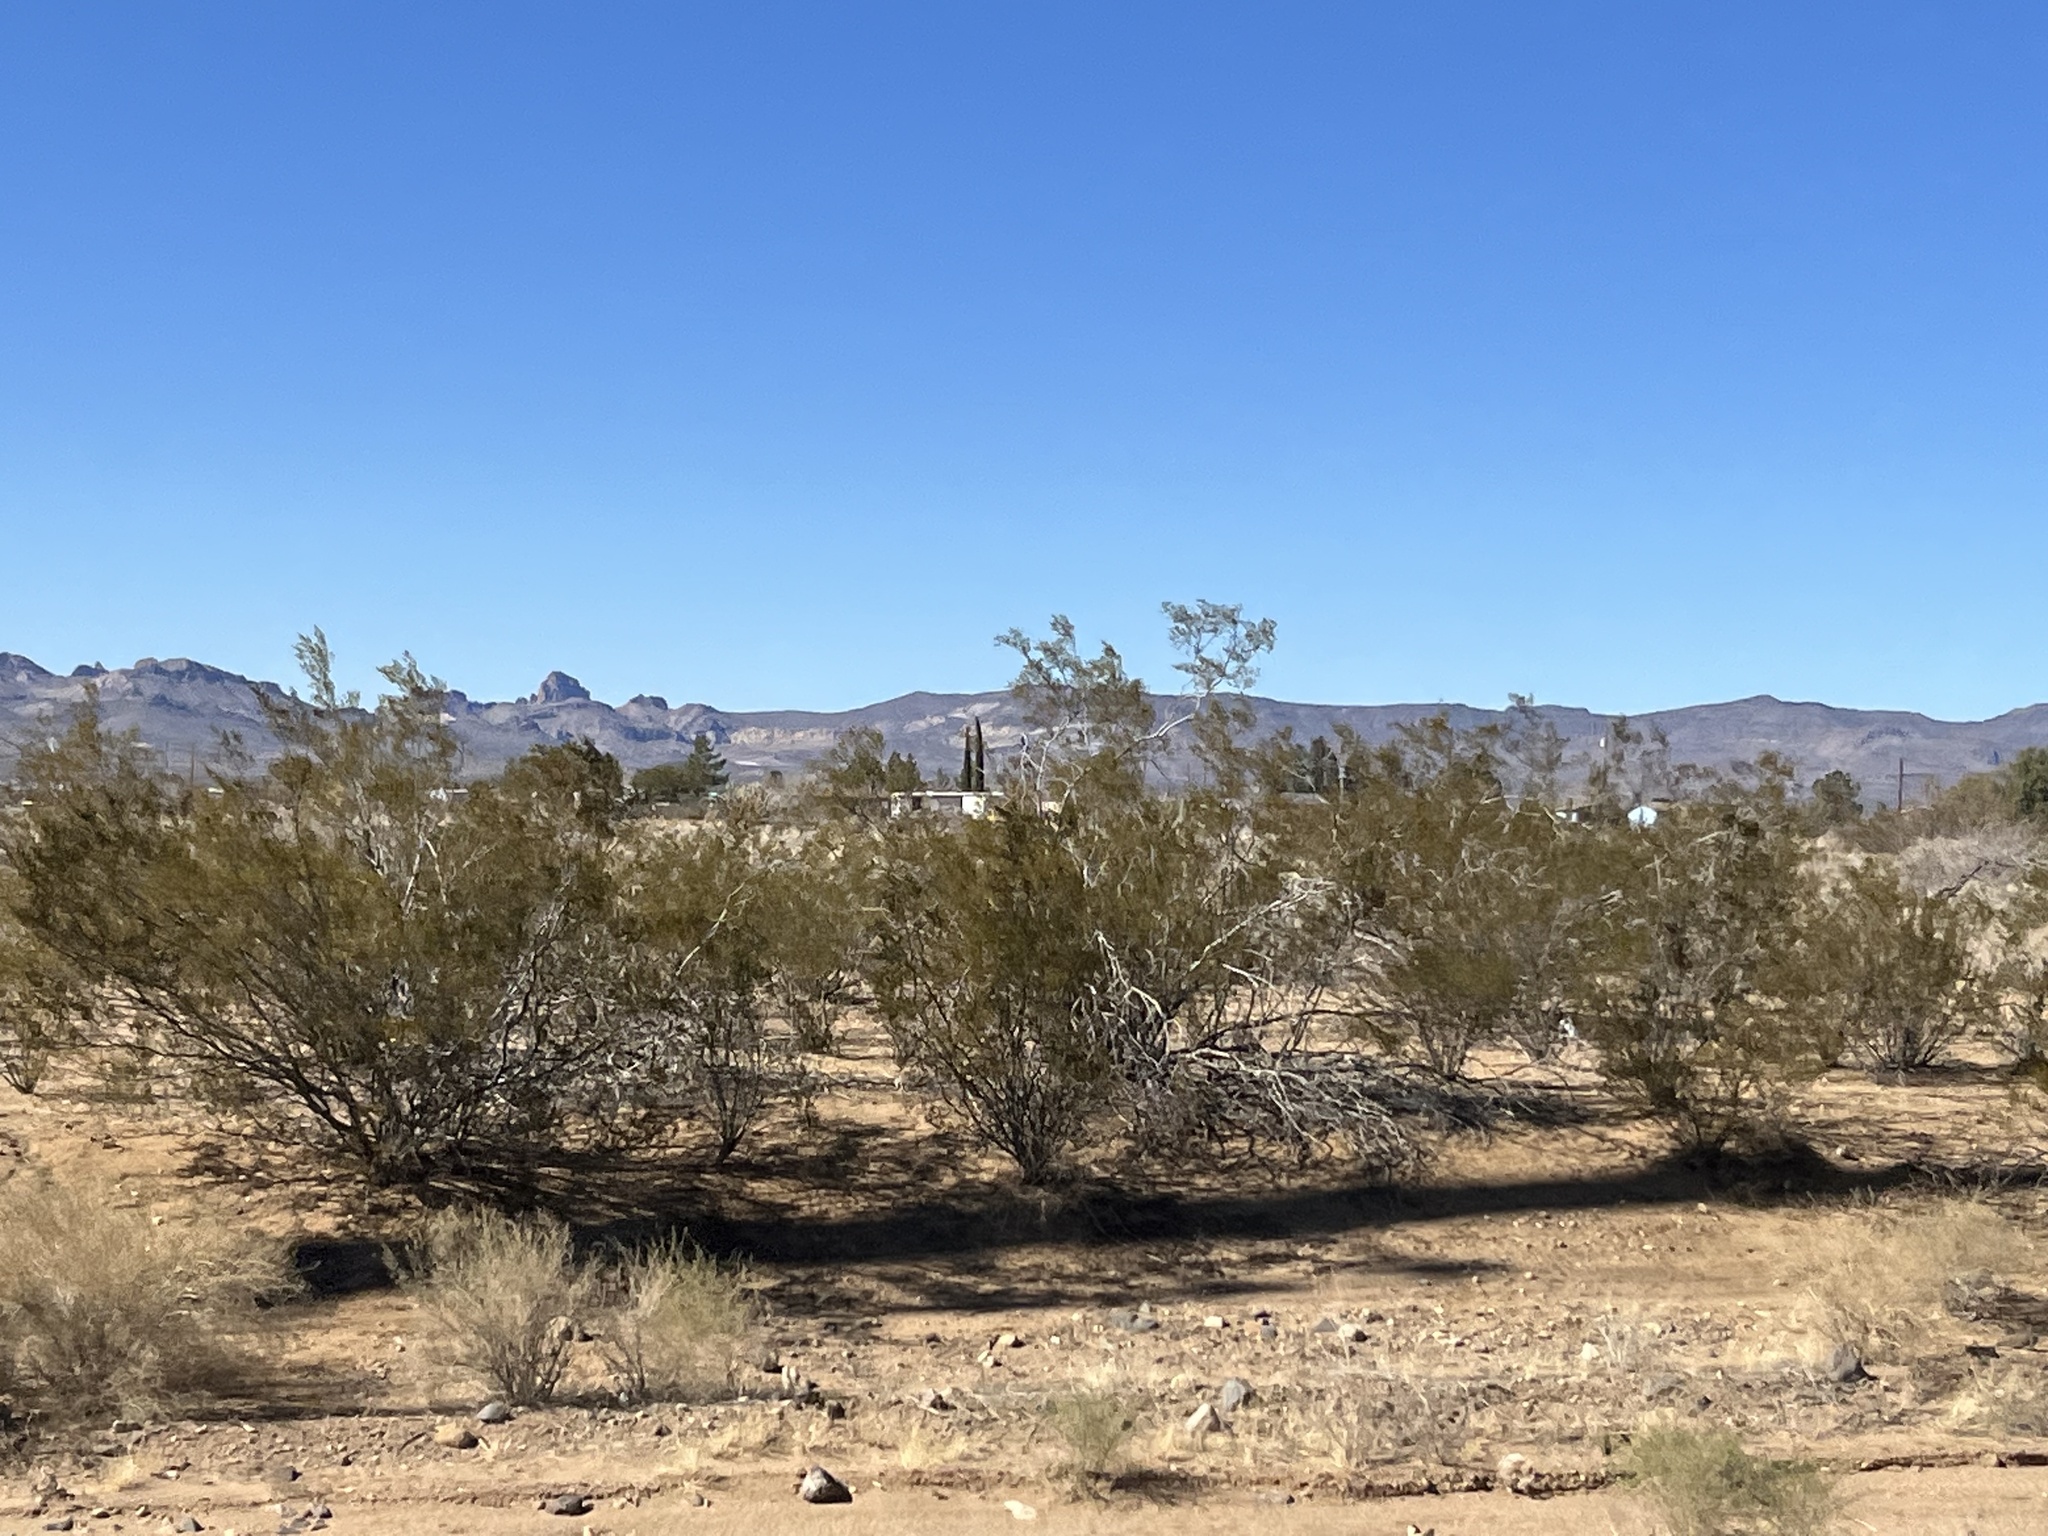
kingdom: Plantae
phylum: Tracheophyta
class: Magnoliopsida
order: Zygophyllales
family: Zygophyllaceae
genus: Larrea
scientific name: Larrea tridentata
